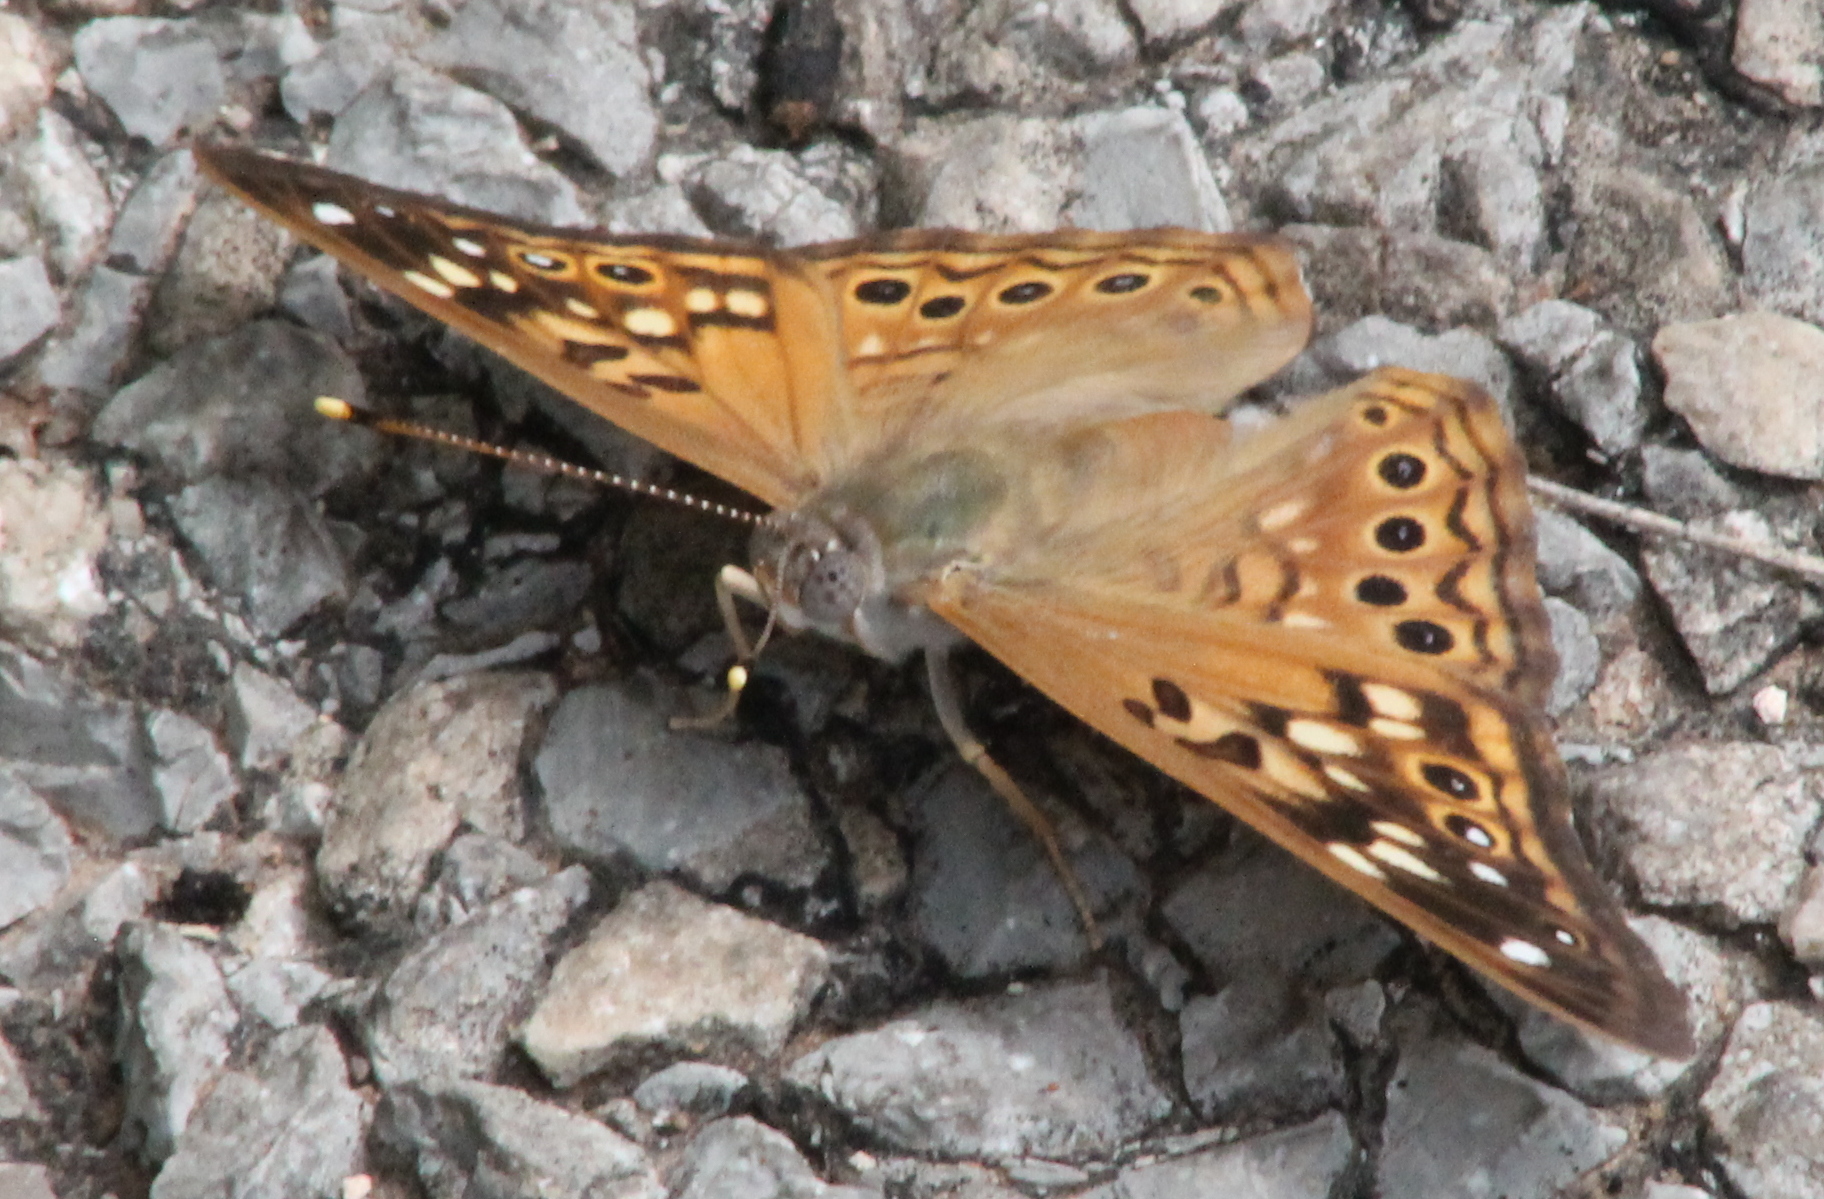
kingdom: Animalia
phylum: Arthropoda
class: Insecta
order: Lepidoptera
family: Nymphalidae
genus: Asterocampa
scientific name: Asterocampa celtis
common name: Hackberry emperor
